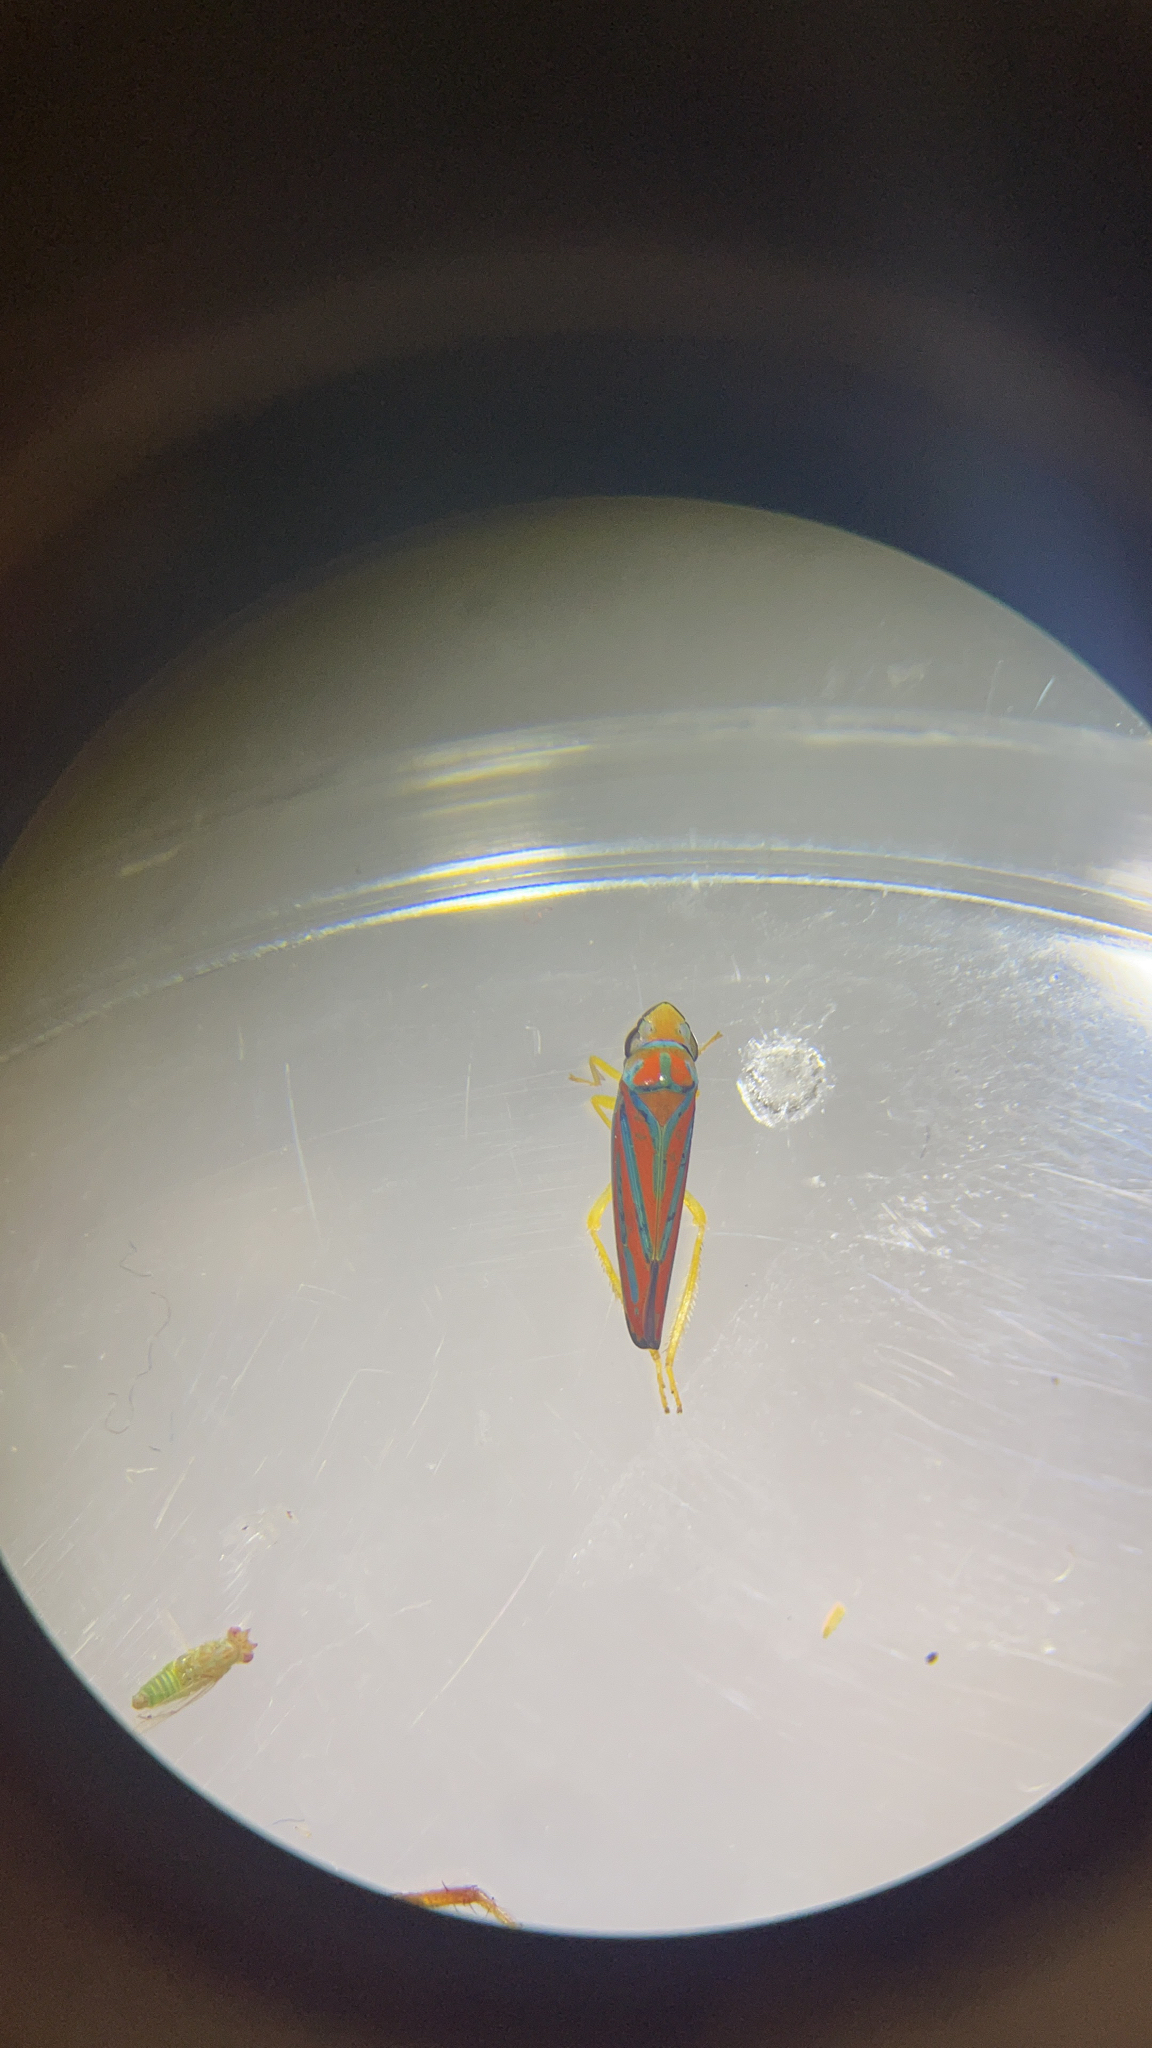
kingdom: Animalia
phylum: Arthropoda
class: Insecta
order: Hemiptera
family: Cicadellidae
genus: Graphocephala
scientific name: Graphocephala coccinea
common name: Candy-striped leafhopper
